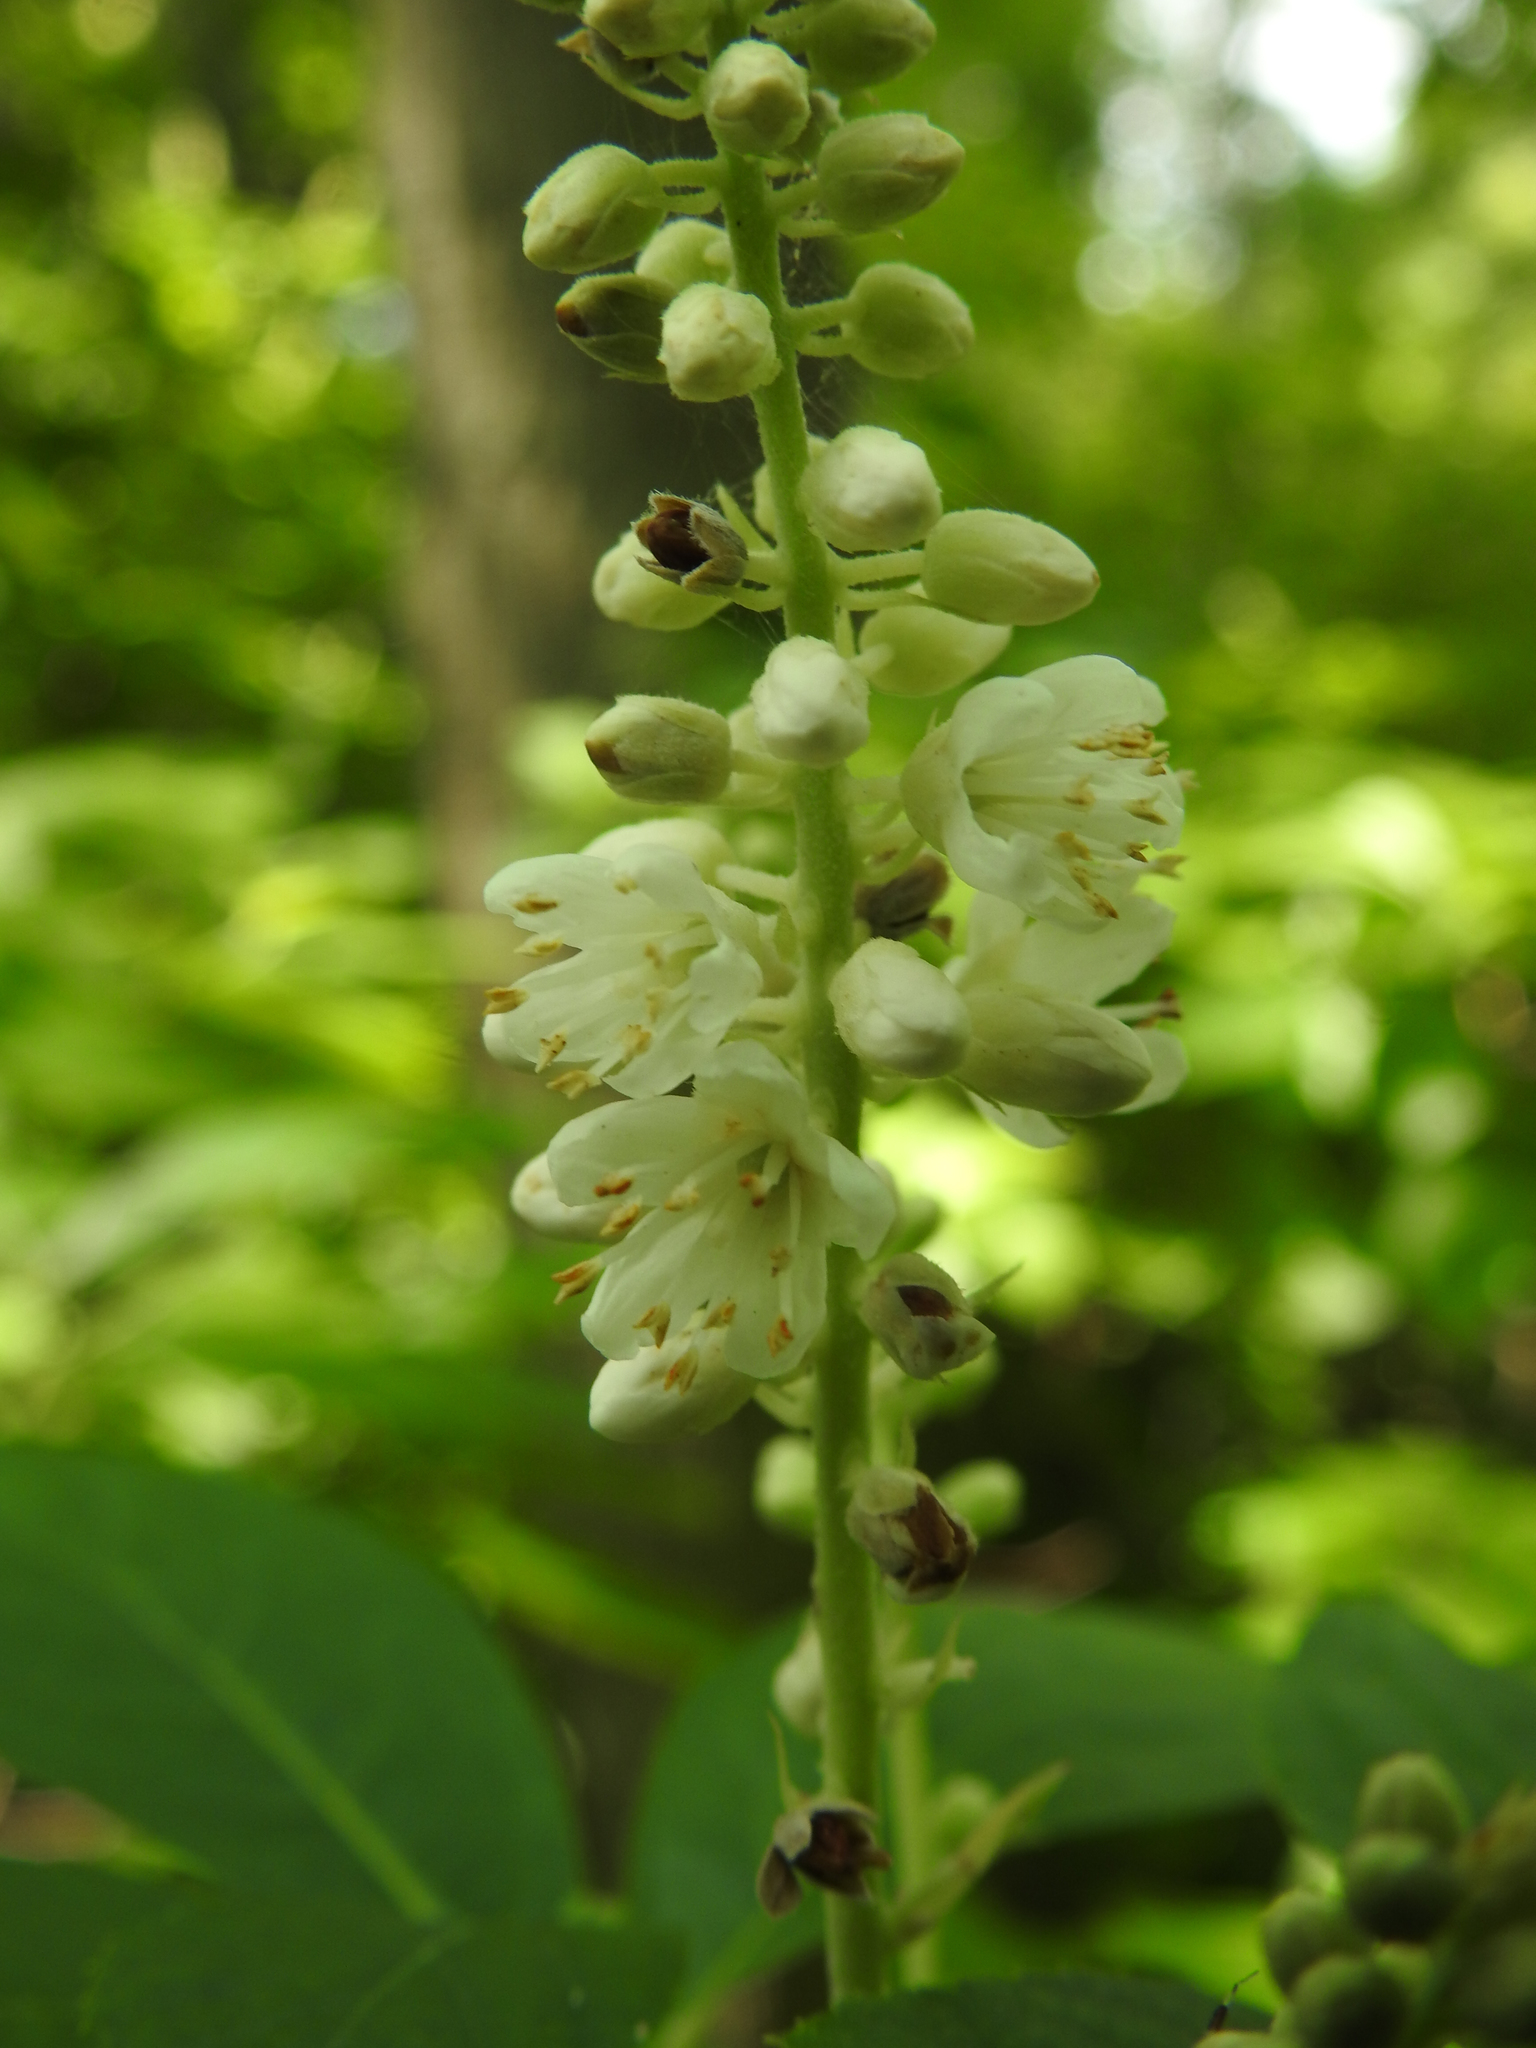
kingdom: Plantae
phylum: Tracheophyta
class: Magnoliopsida
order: Ericales
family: Clethraceae
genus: Clethra
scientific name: Clethra alnifolia
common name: Sweet pepperbush
